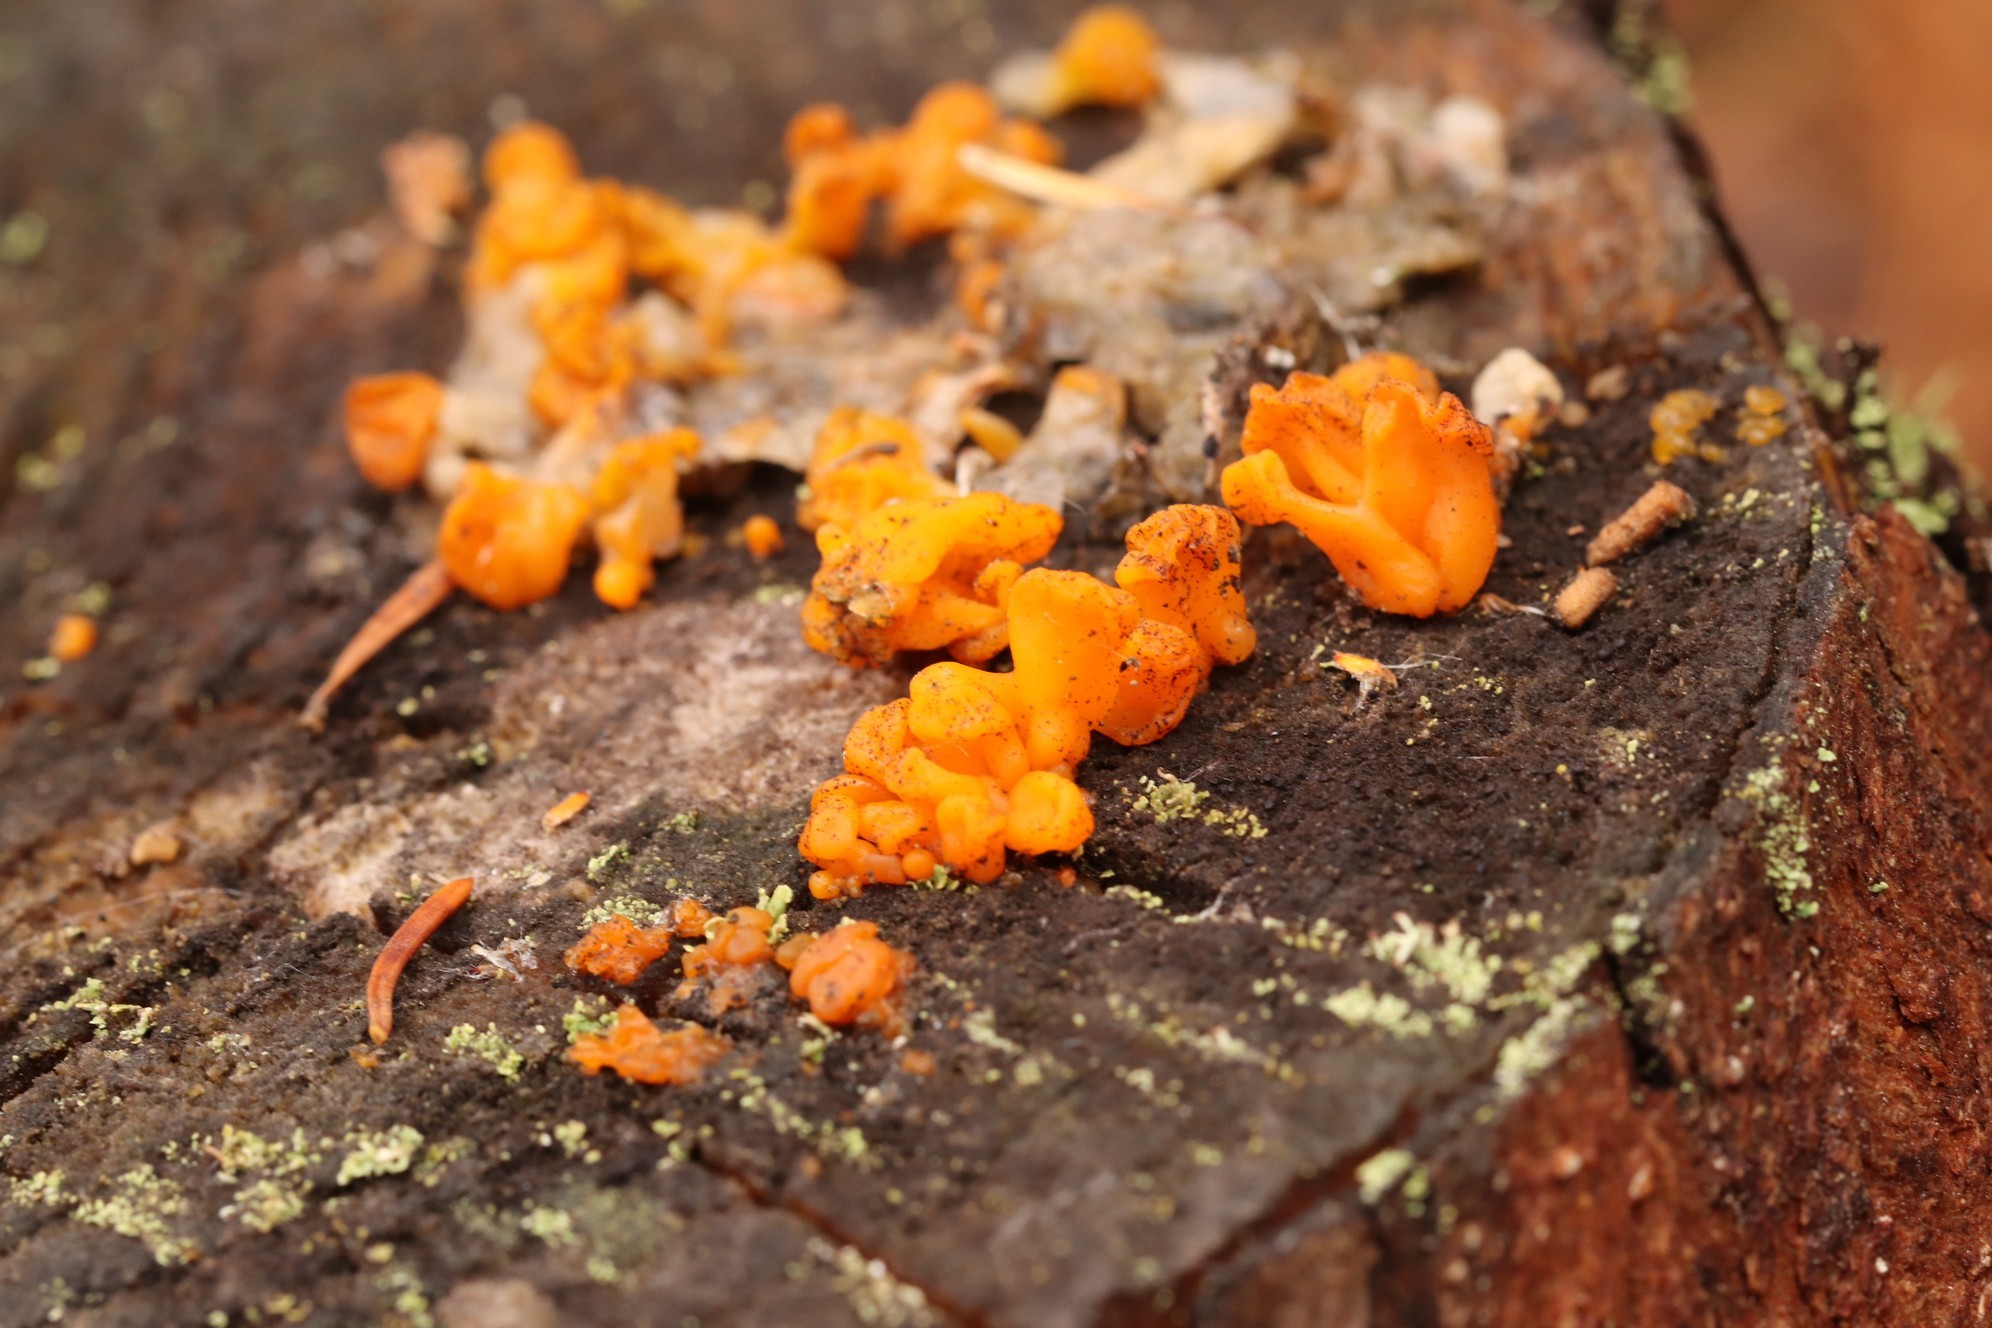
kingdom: Fungi
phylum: Basidiomycota
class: Dacrymycetes
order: Dacrymycetales
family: Dacrymycetaceae
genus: Dacrymyces
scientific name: Dacrymyces chrysospermus
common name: Orange jelly spot
